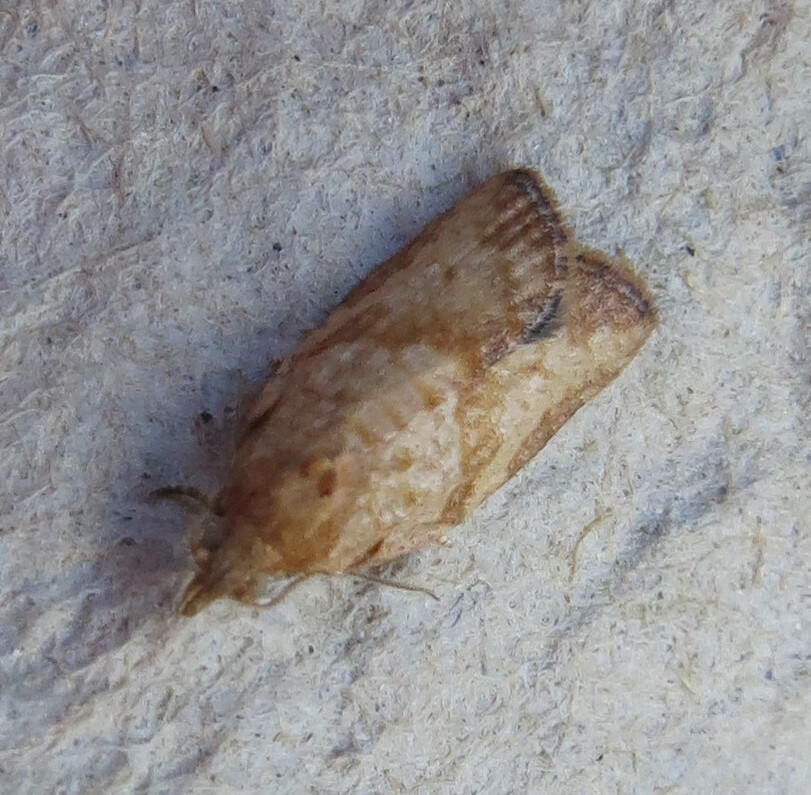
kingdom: Animalia
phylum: Arthropoda
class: Insecta
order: Lepidoptera
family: Tortricidae
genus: Epiphyas
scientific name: Epiphyas postvittana
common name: Light brown apple moth
